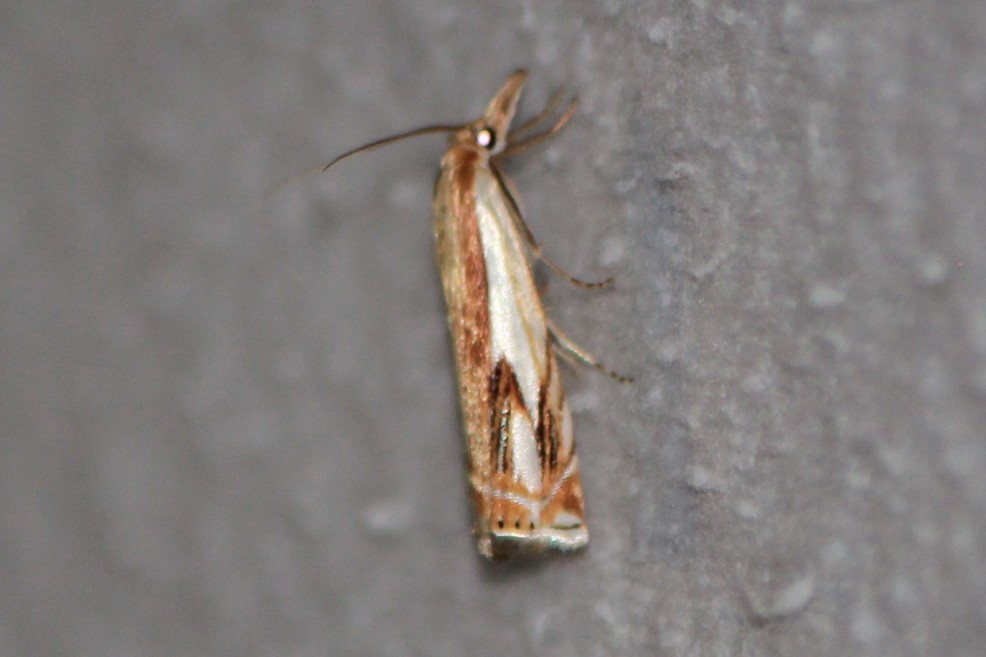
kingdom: Animalia
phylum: Arthropoda
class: Insecta
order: Lepidoptera
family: Crambidae
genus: Crambus
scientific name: Crambus agitatellus
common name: Double-banded grass-veneer
